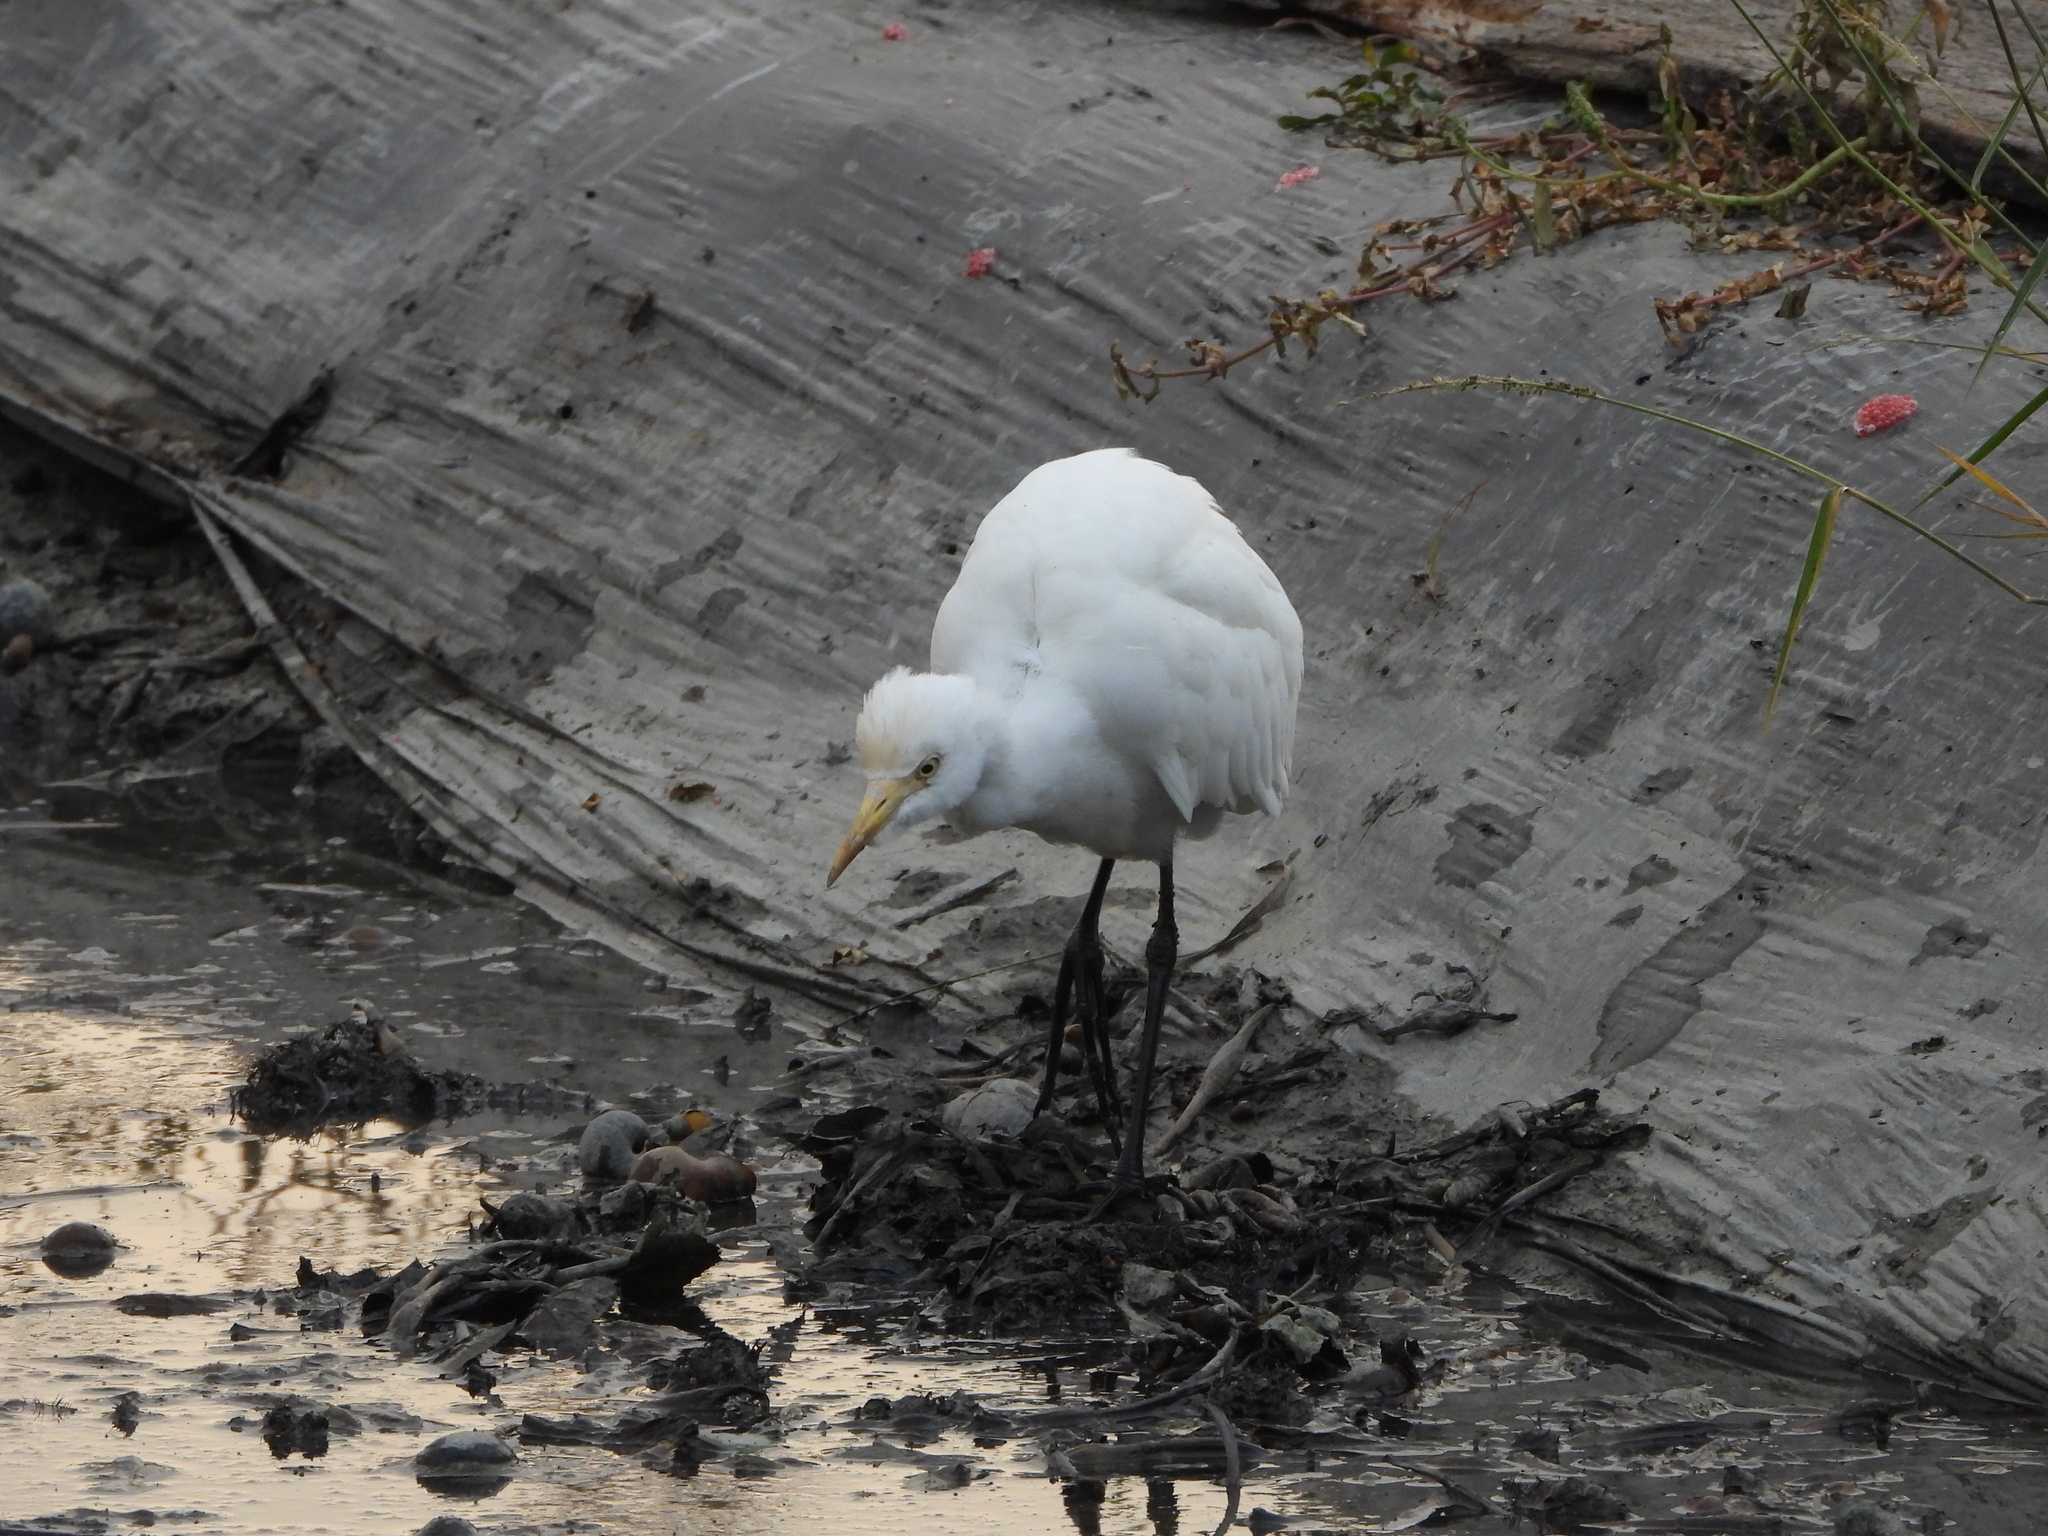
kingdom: Animalia
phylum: Chordata
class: Aves
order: Pelecaniformes
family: Ardeidae
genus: Bubulcus
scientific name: Bubulcus coromandus
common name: Eastern cattle egret
